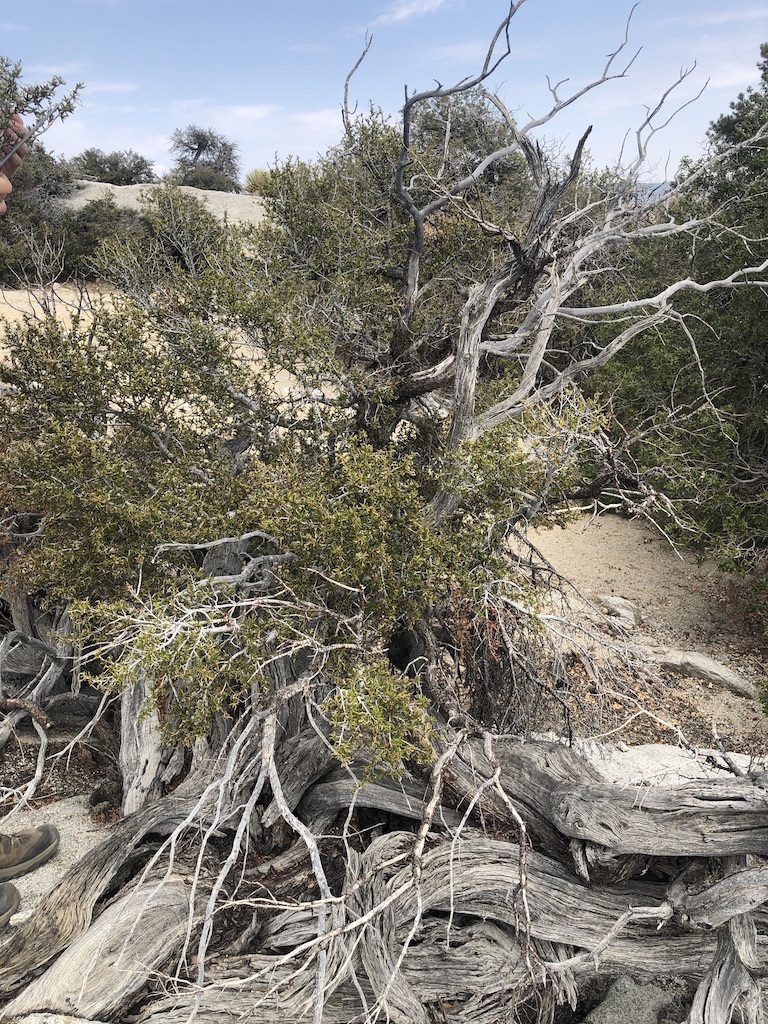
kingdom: Plantae
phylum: Tracheophyta
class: Magnoliopsida
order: Rosales
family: Rosaceae
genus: Cercocarpus
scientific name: Cercocarpus ledifolius
